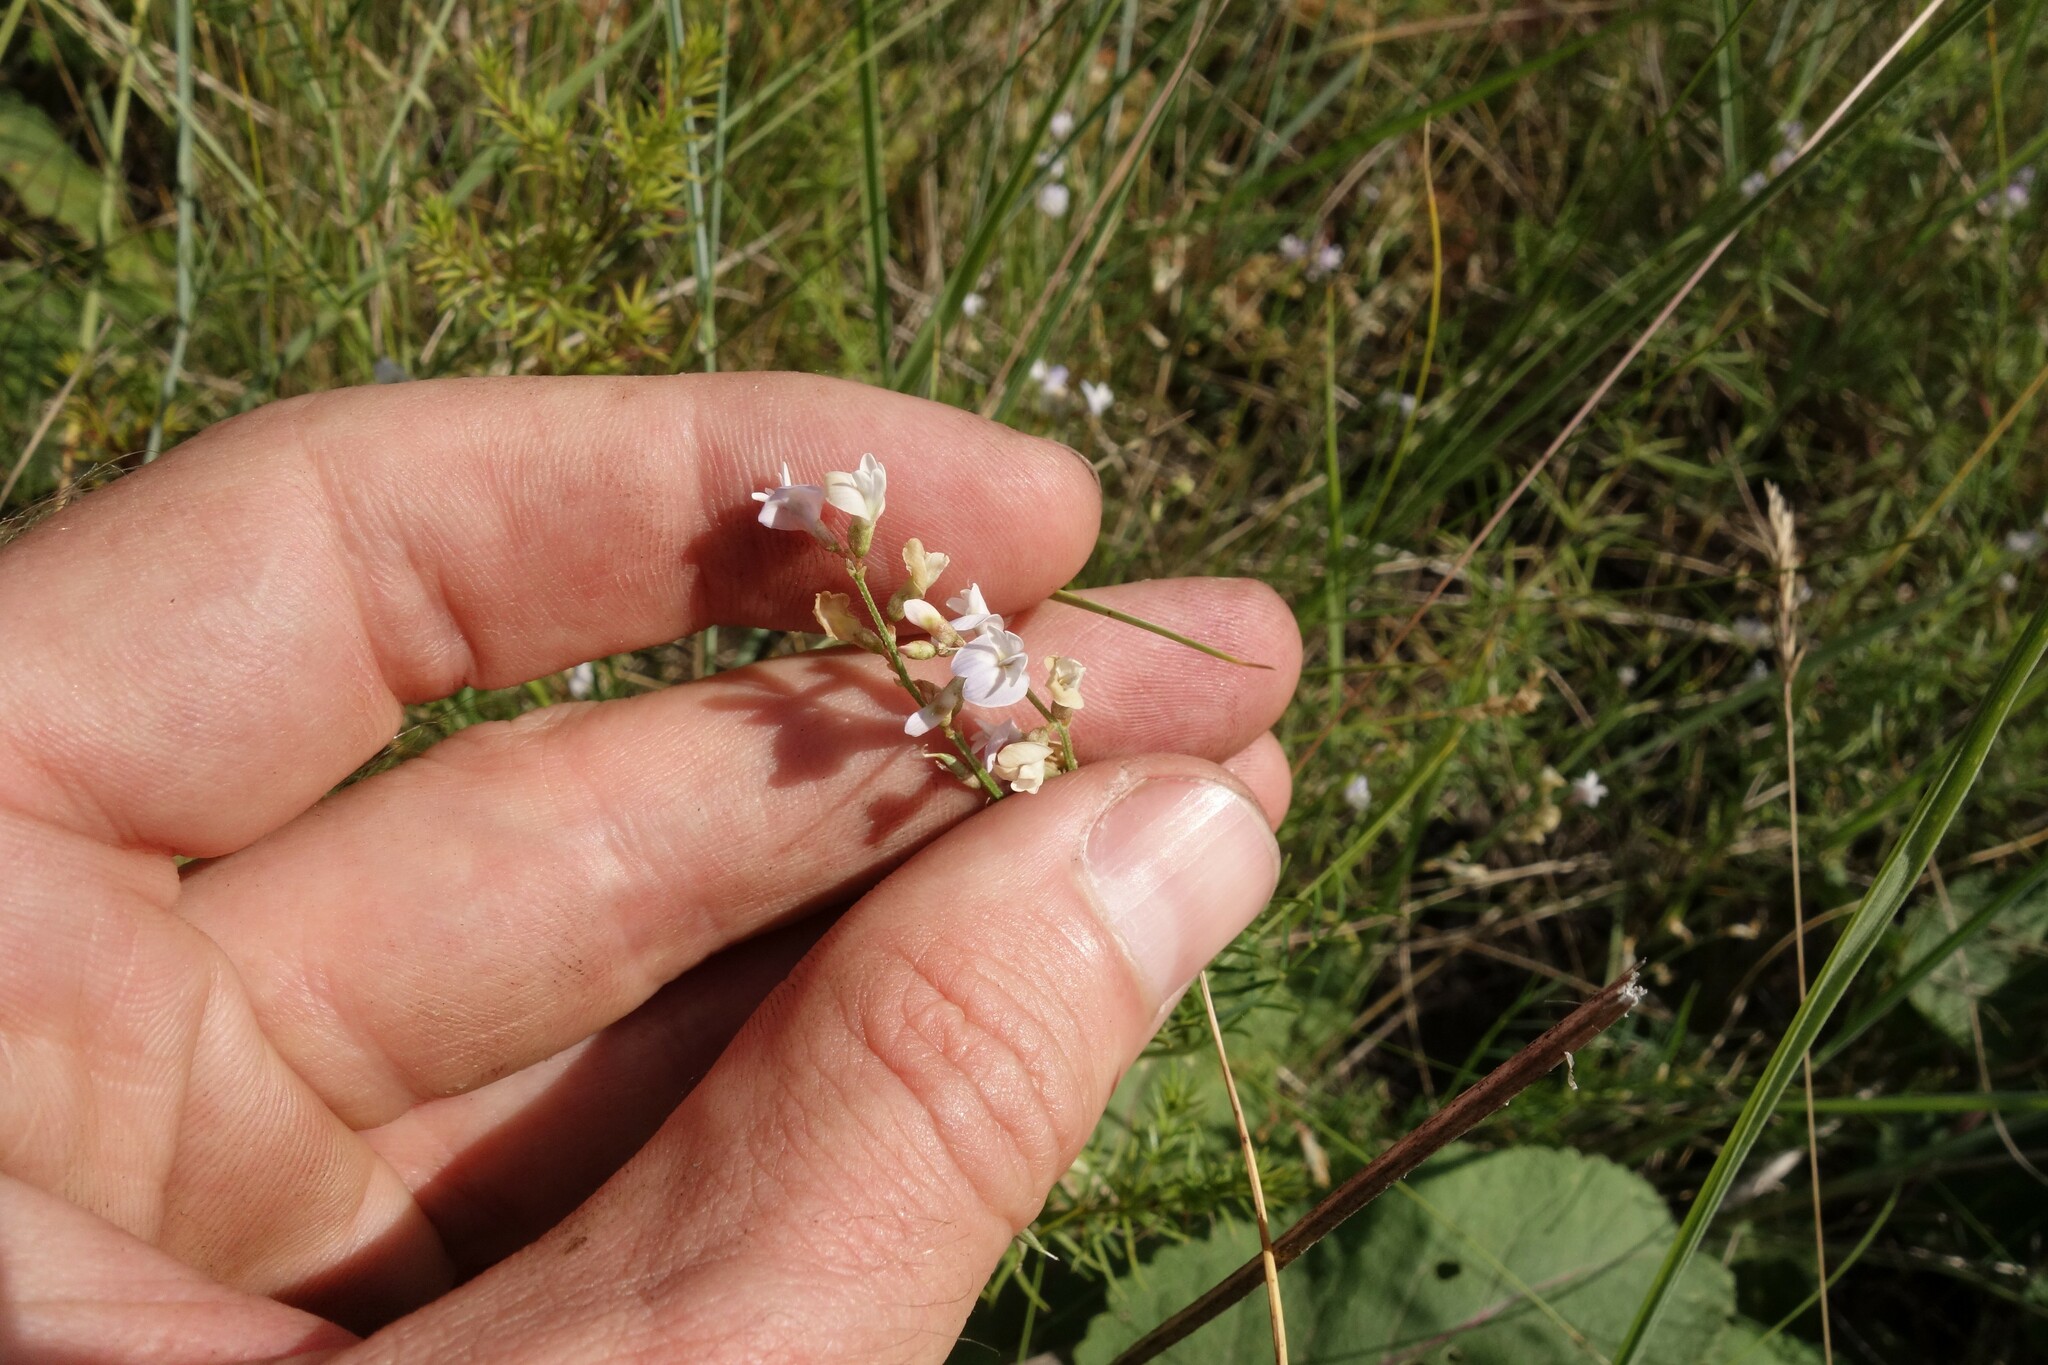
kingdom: Plantae
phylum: Tracheophyta
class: Magnoliopsida
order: Fabales
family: Fabaceae
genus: Astragalus
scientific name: Astragalus austriacus
